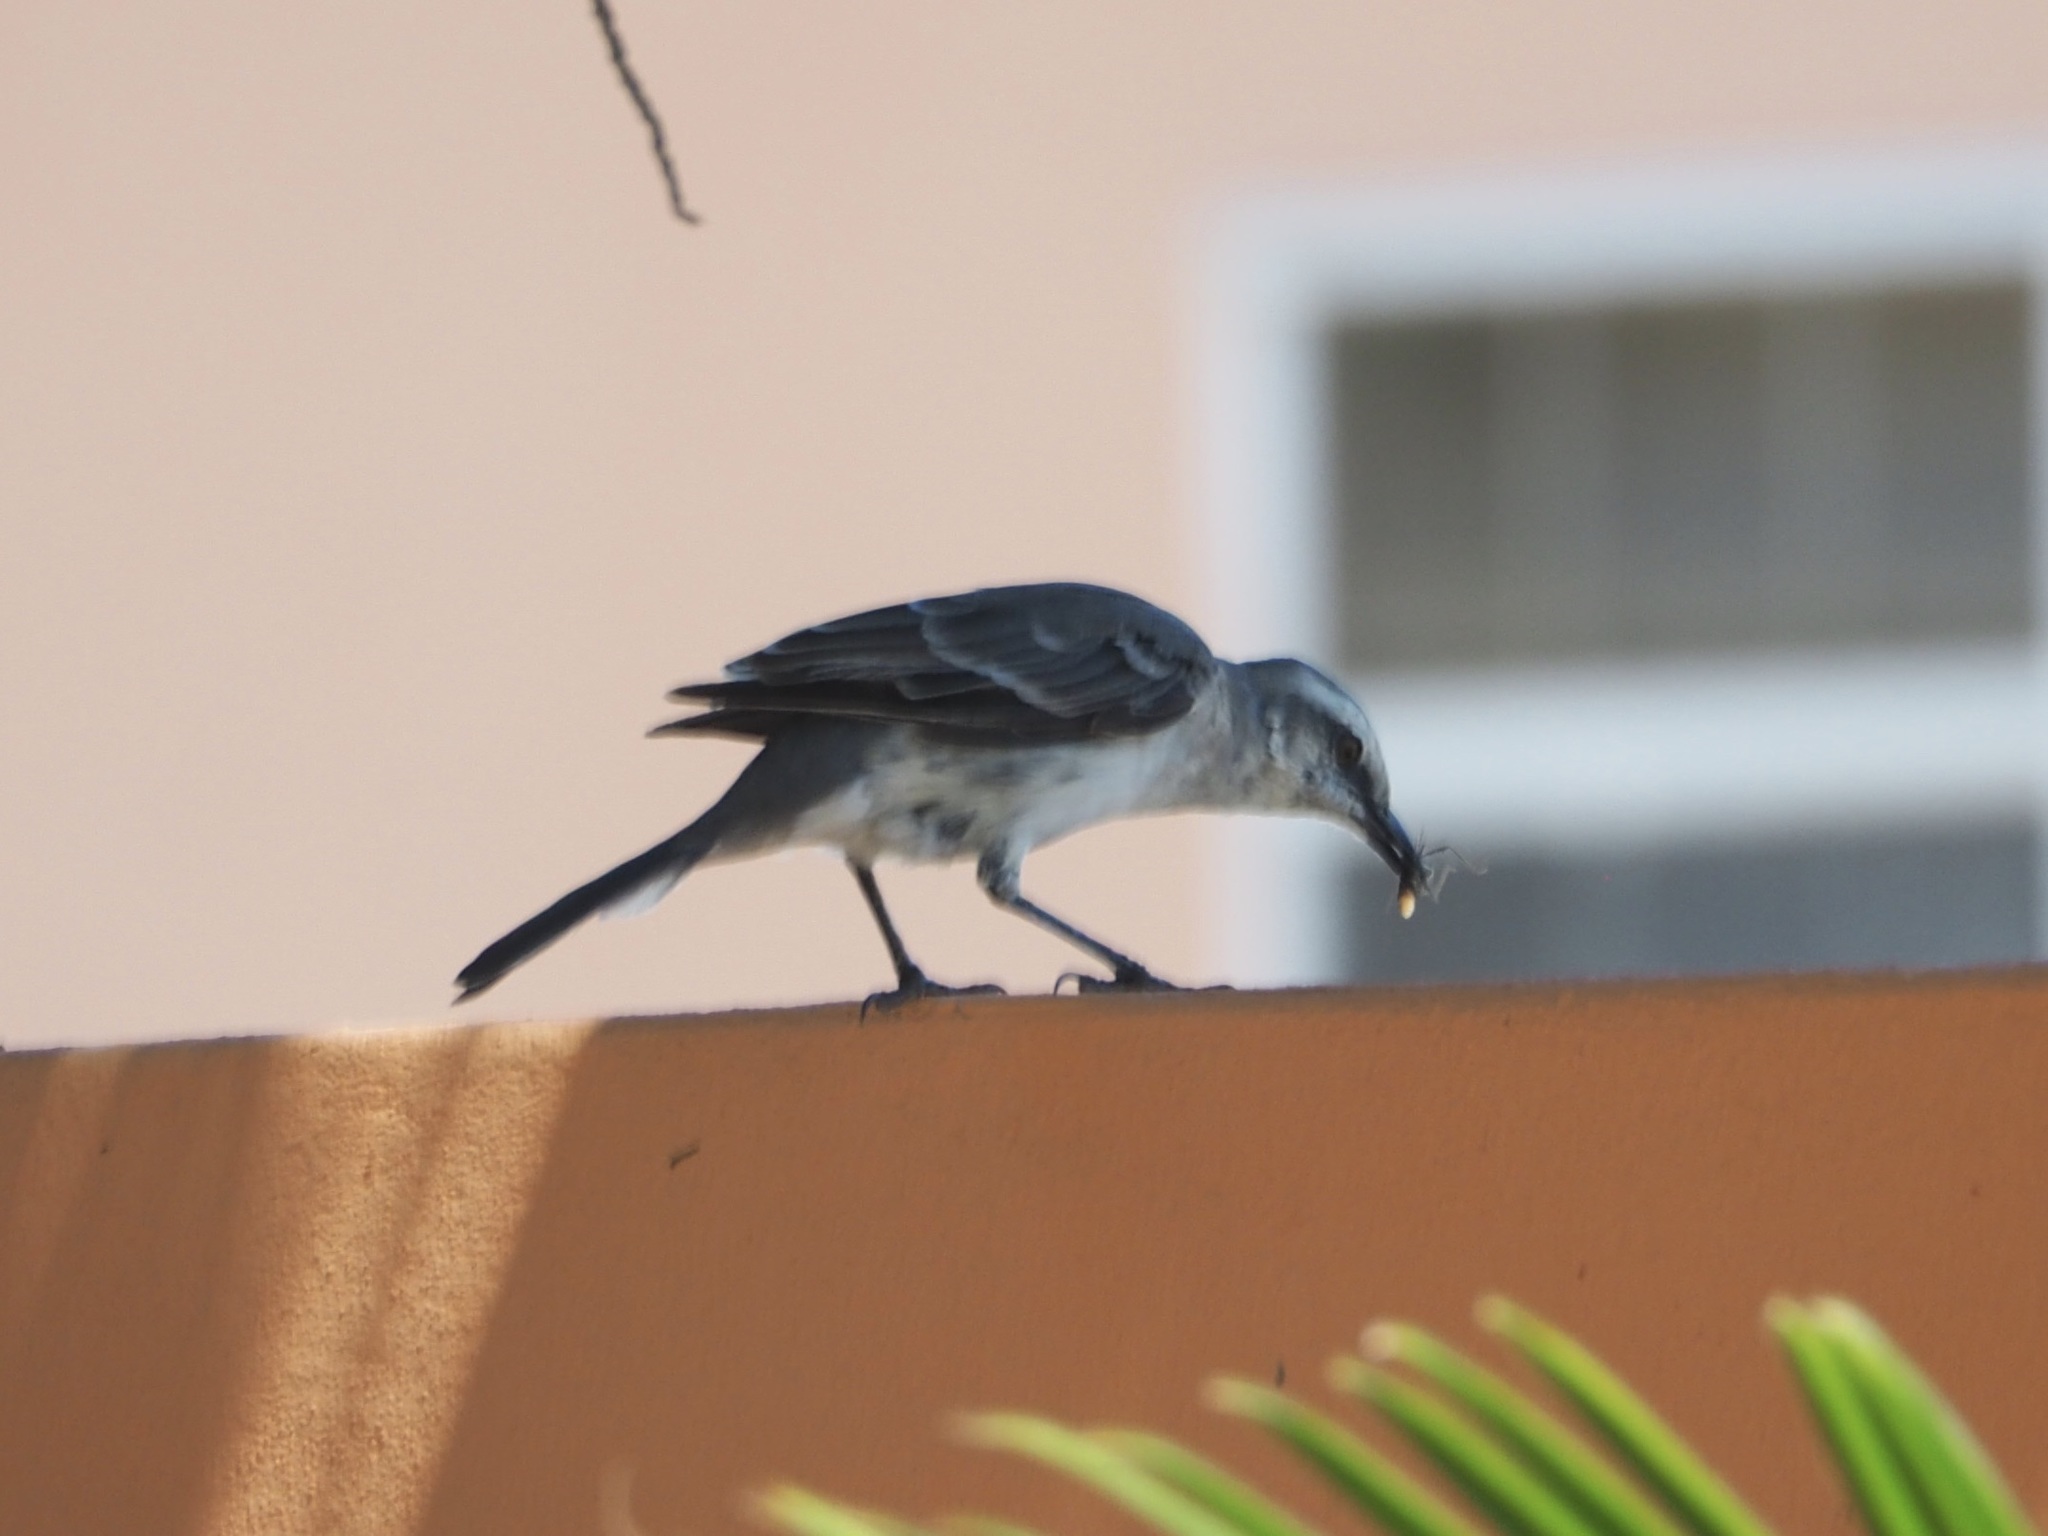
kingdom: Animalia
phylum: Chordata
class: Aves
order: Passeriformes
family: Mimidae
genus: Mimus
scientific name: Mimus gilvus
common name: Tropical mockingbird
